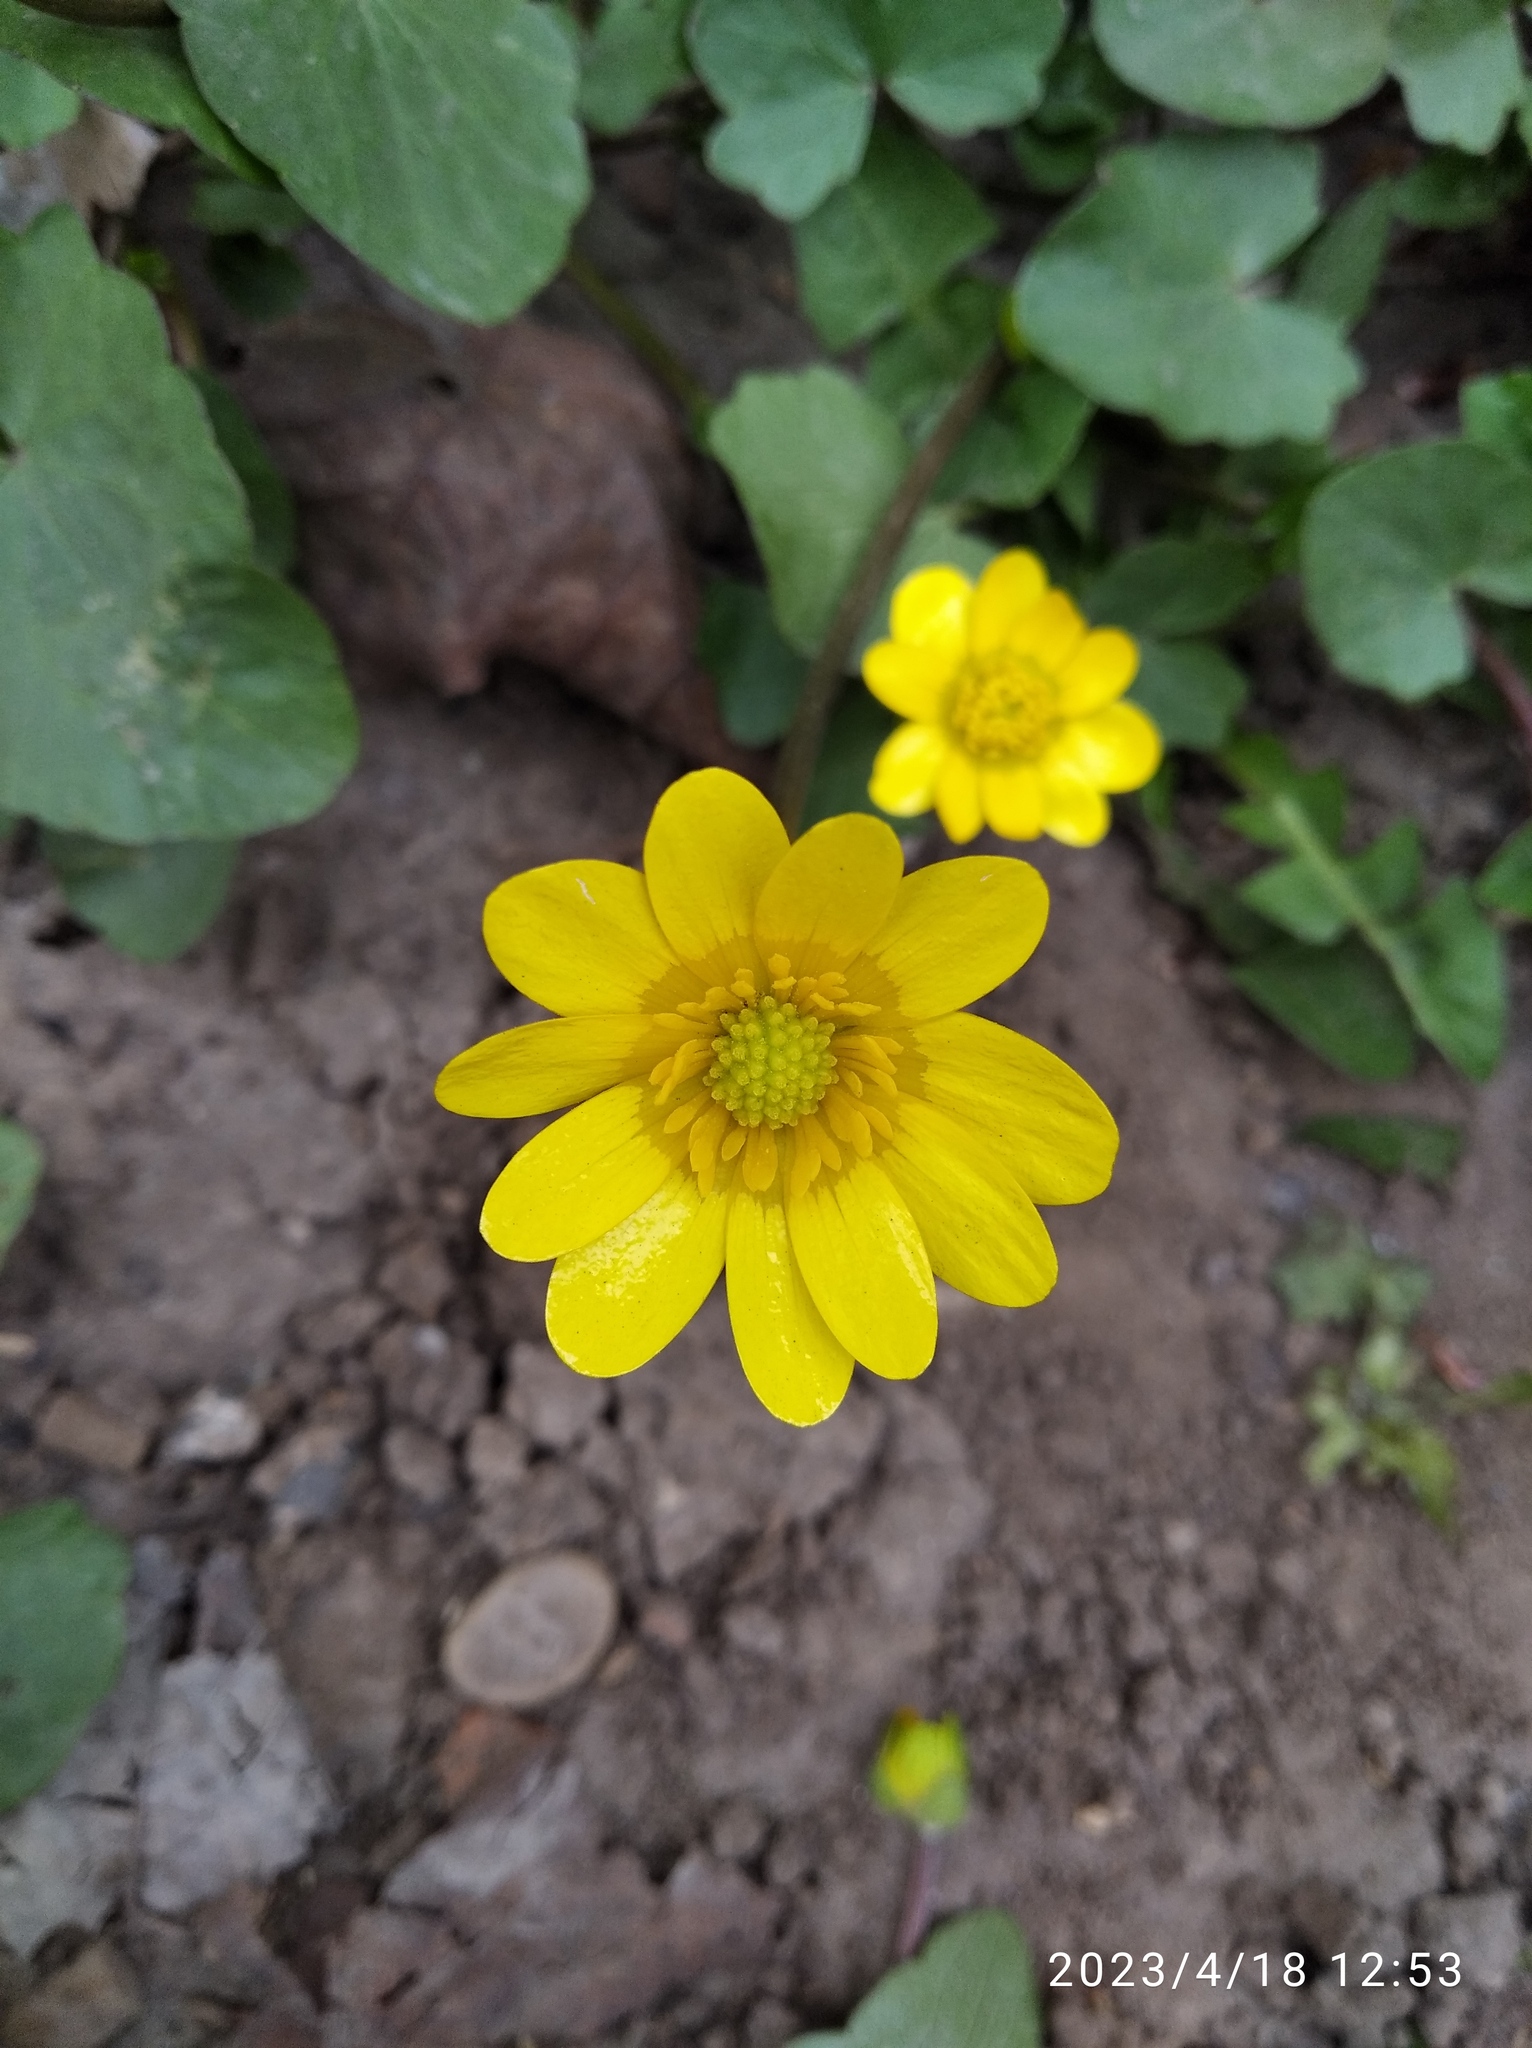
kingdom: Plantae
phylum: Tracheophyta
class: Magnoliopsida
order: Ranunculales
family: Ranunculaceae
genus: Ficaria
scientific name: Ficaria verna
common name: Lesser celandine
